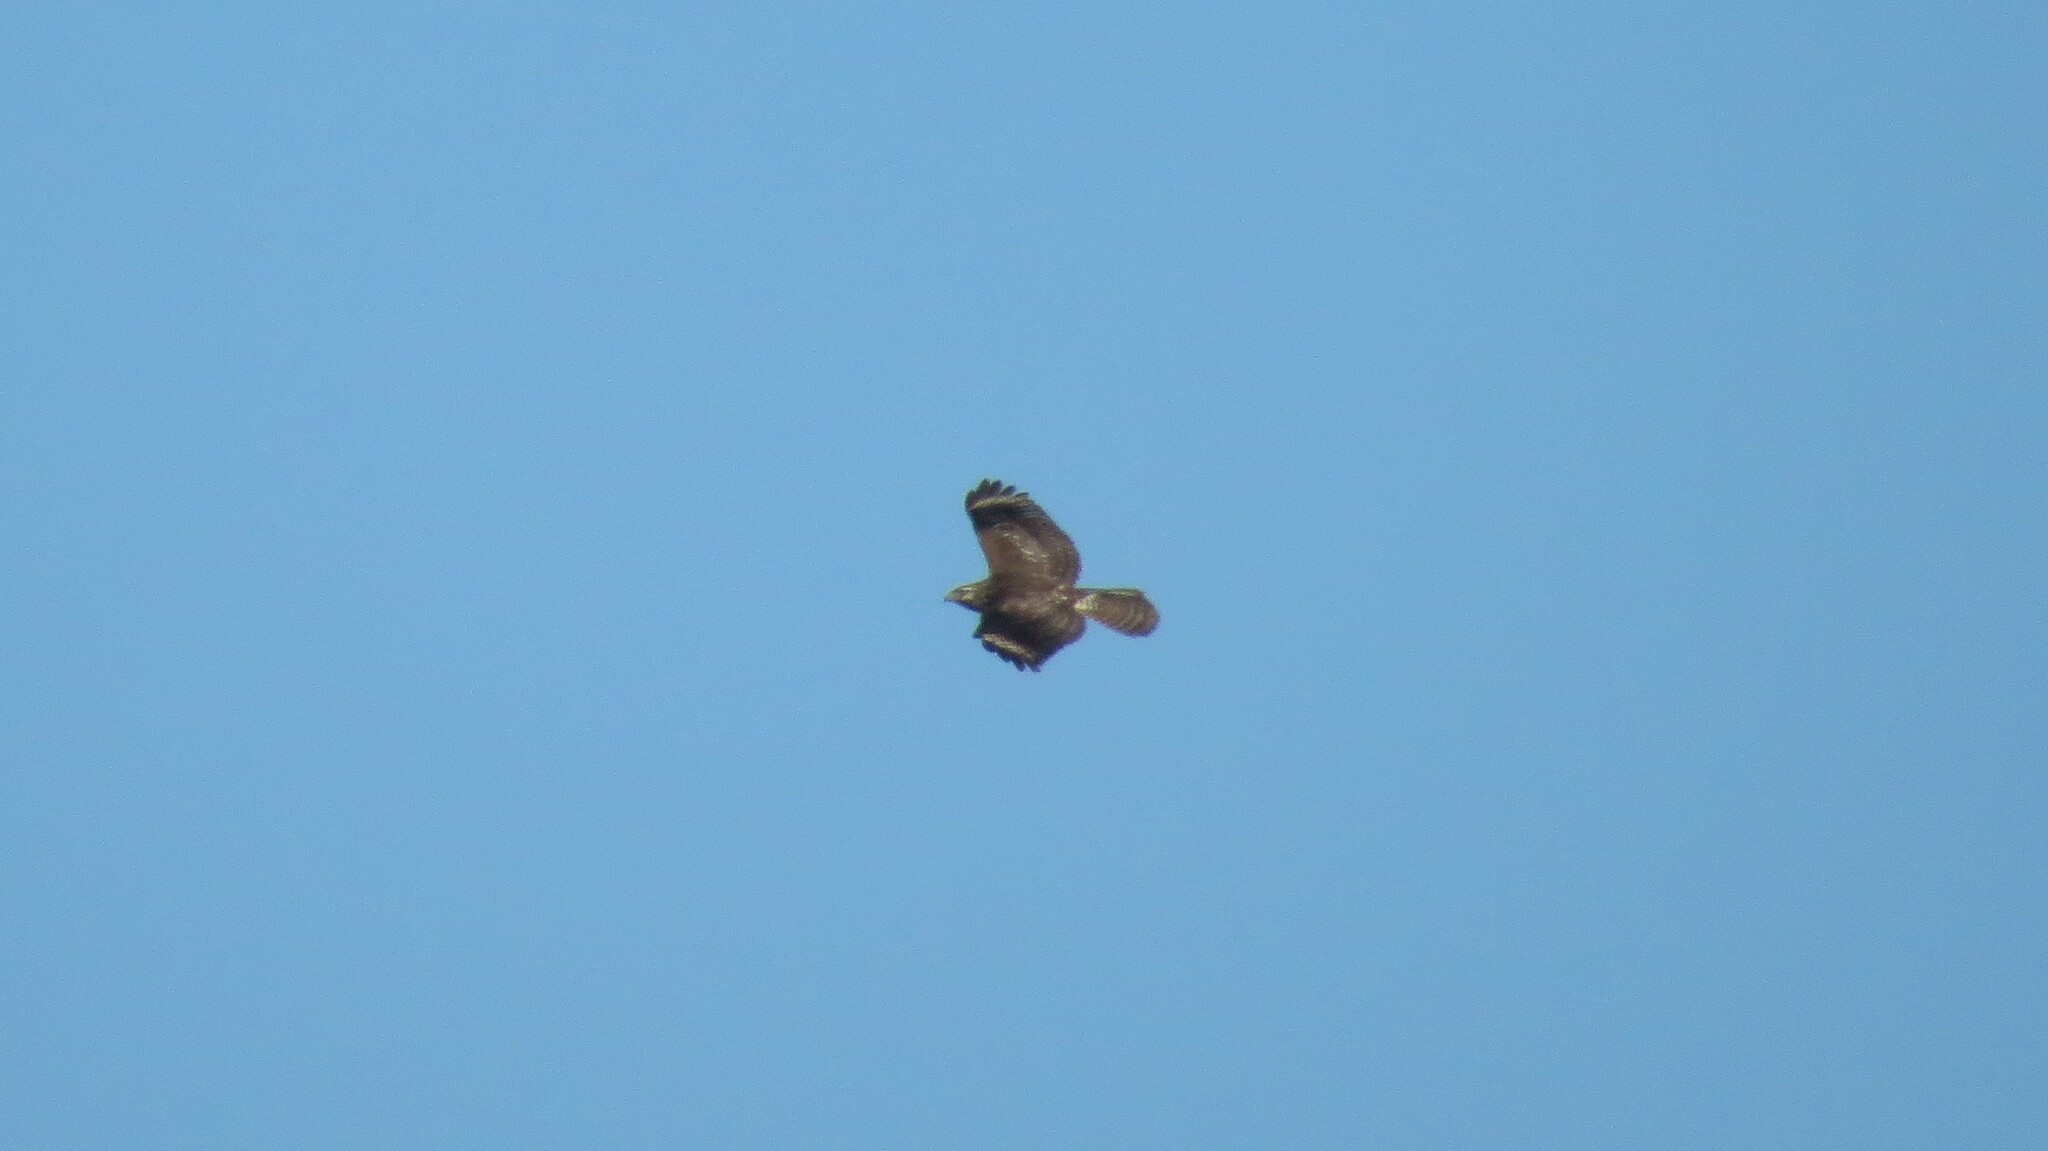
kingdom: Animalia
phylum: Chordata
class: Aves
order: Accipitriformes
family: Accipitridae
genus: Buteo
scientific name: Buteo lineatus
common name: Red-shouldered hawk
